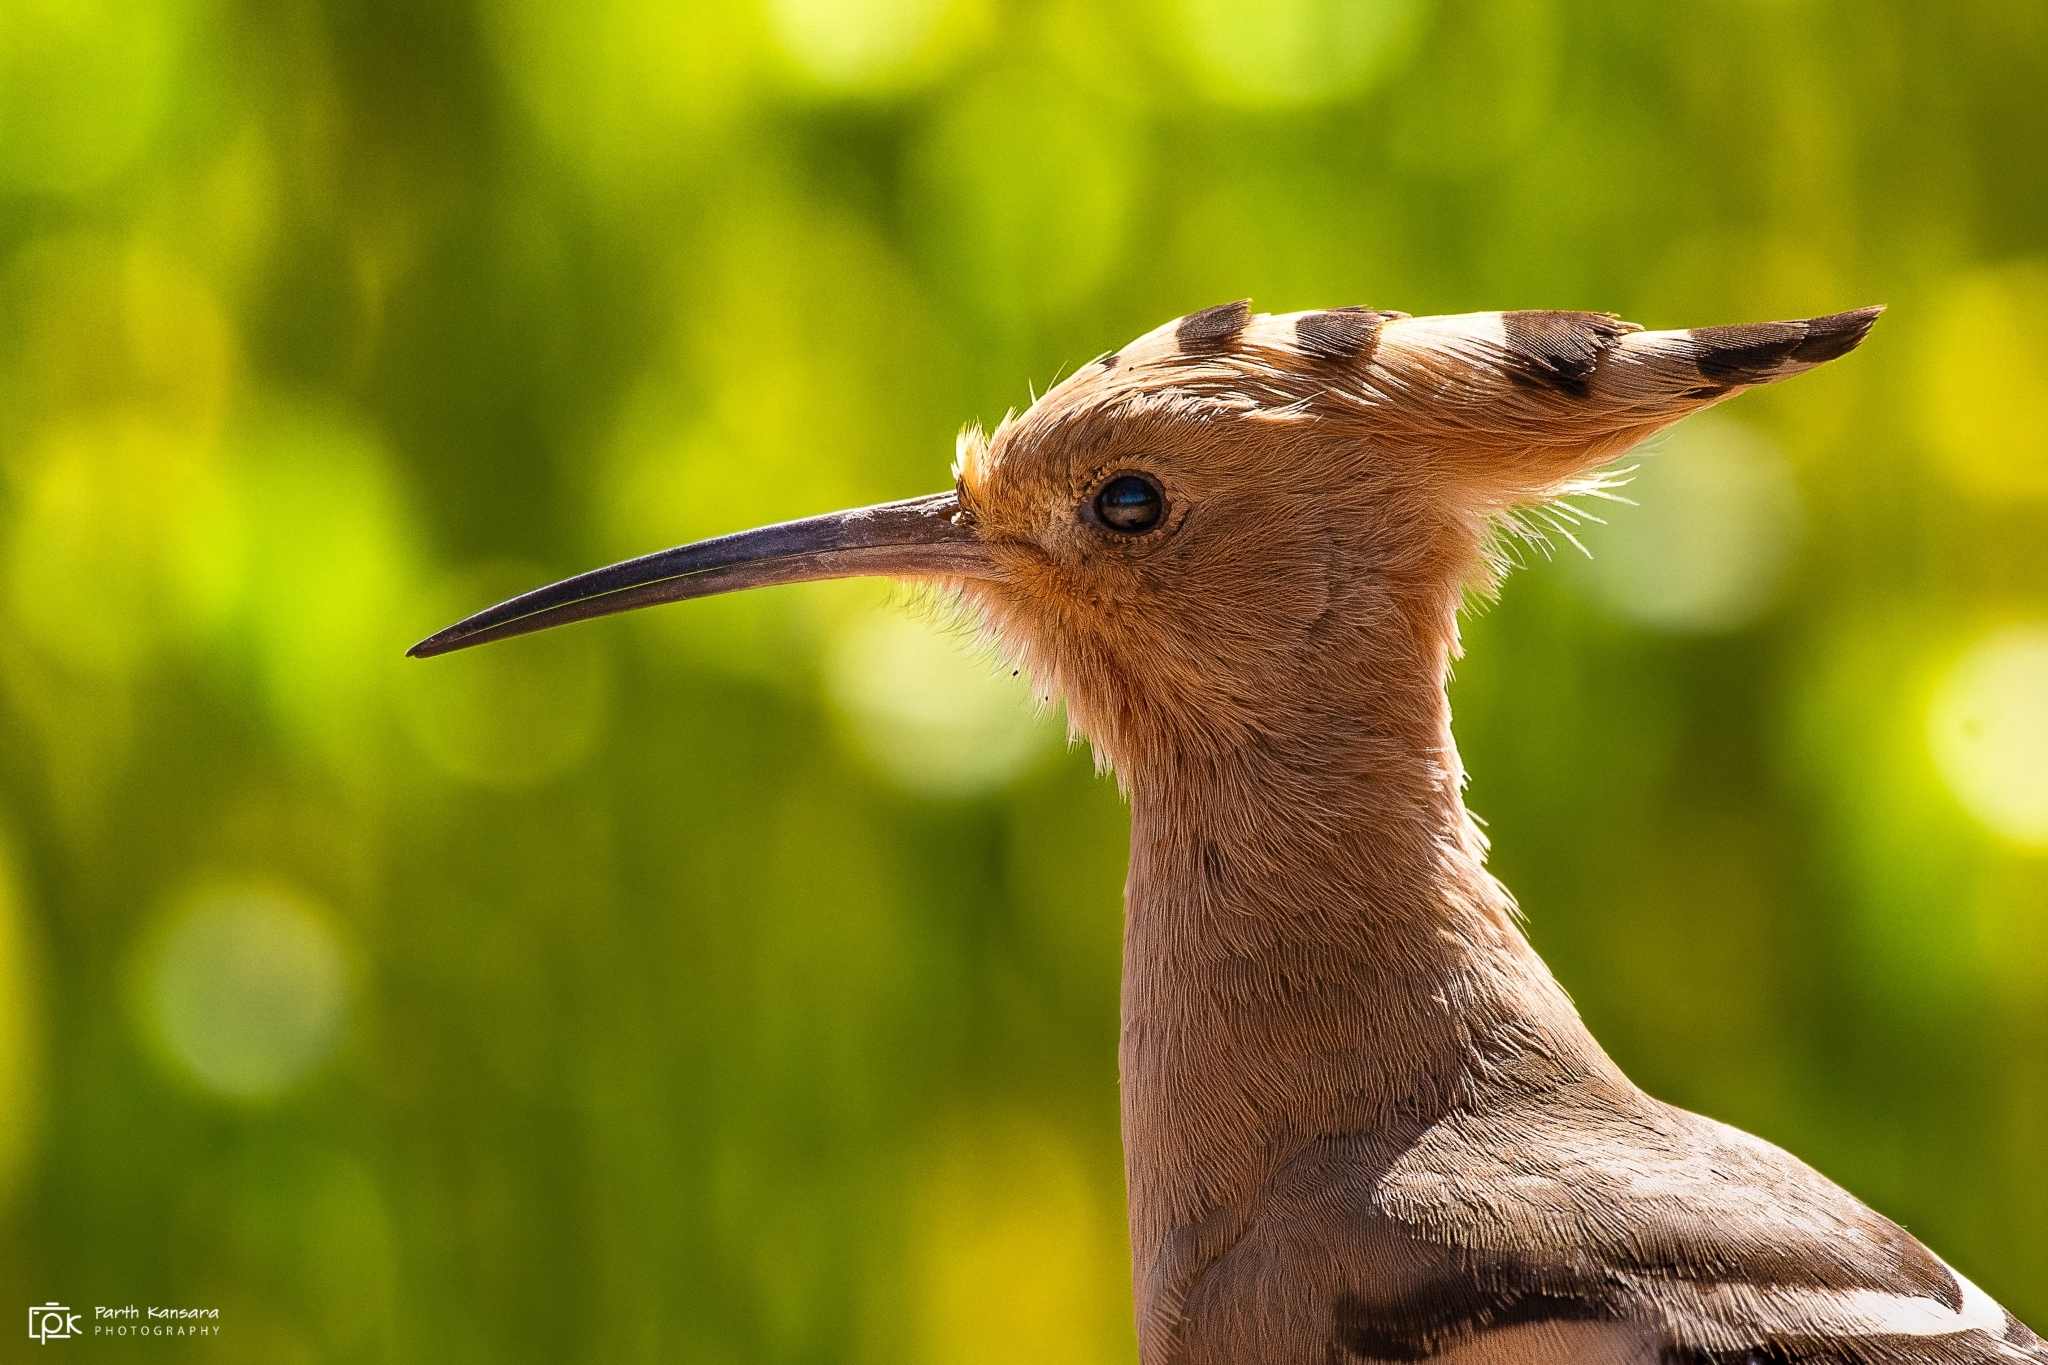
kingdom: Animalia
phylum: Chordata
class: Aves
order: Bucerotiformes
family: Upupidae
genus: Upupa
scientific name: Upupa epops
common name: Eurasian hoopoe
